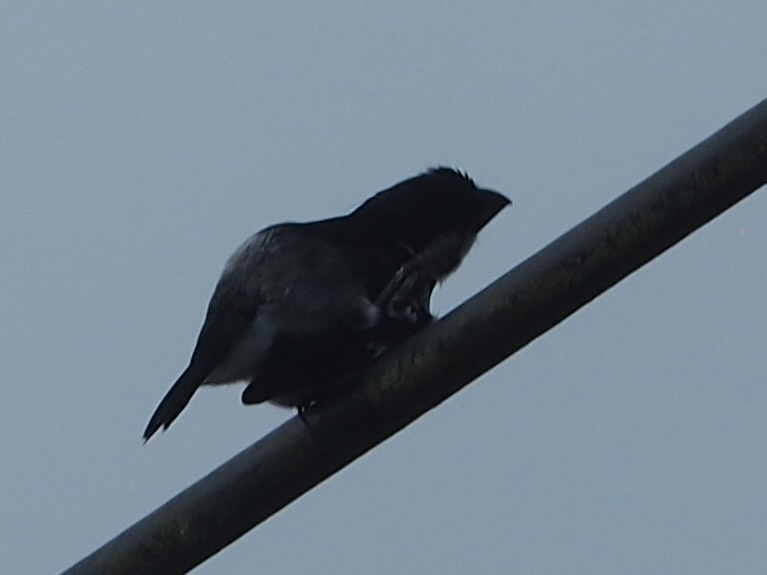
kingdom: Animalia
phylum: Chordata
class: Aves
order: Passeriformes
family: Thraupidae
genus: Sporophila
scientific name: Sporophila americana
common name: Wing-barred seedeater
